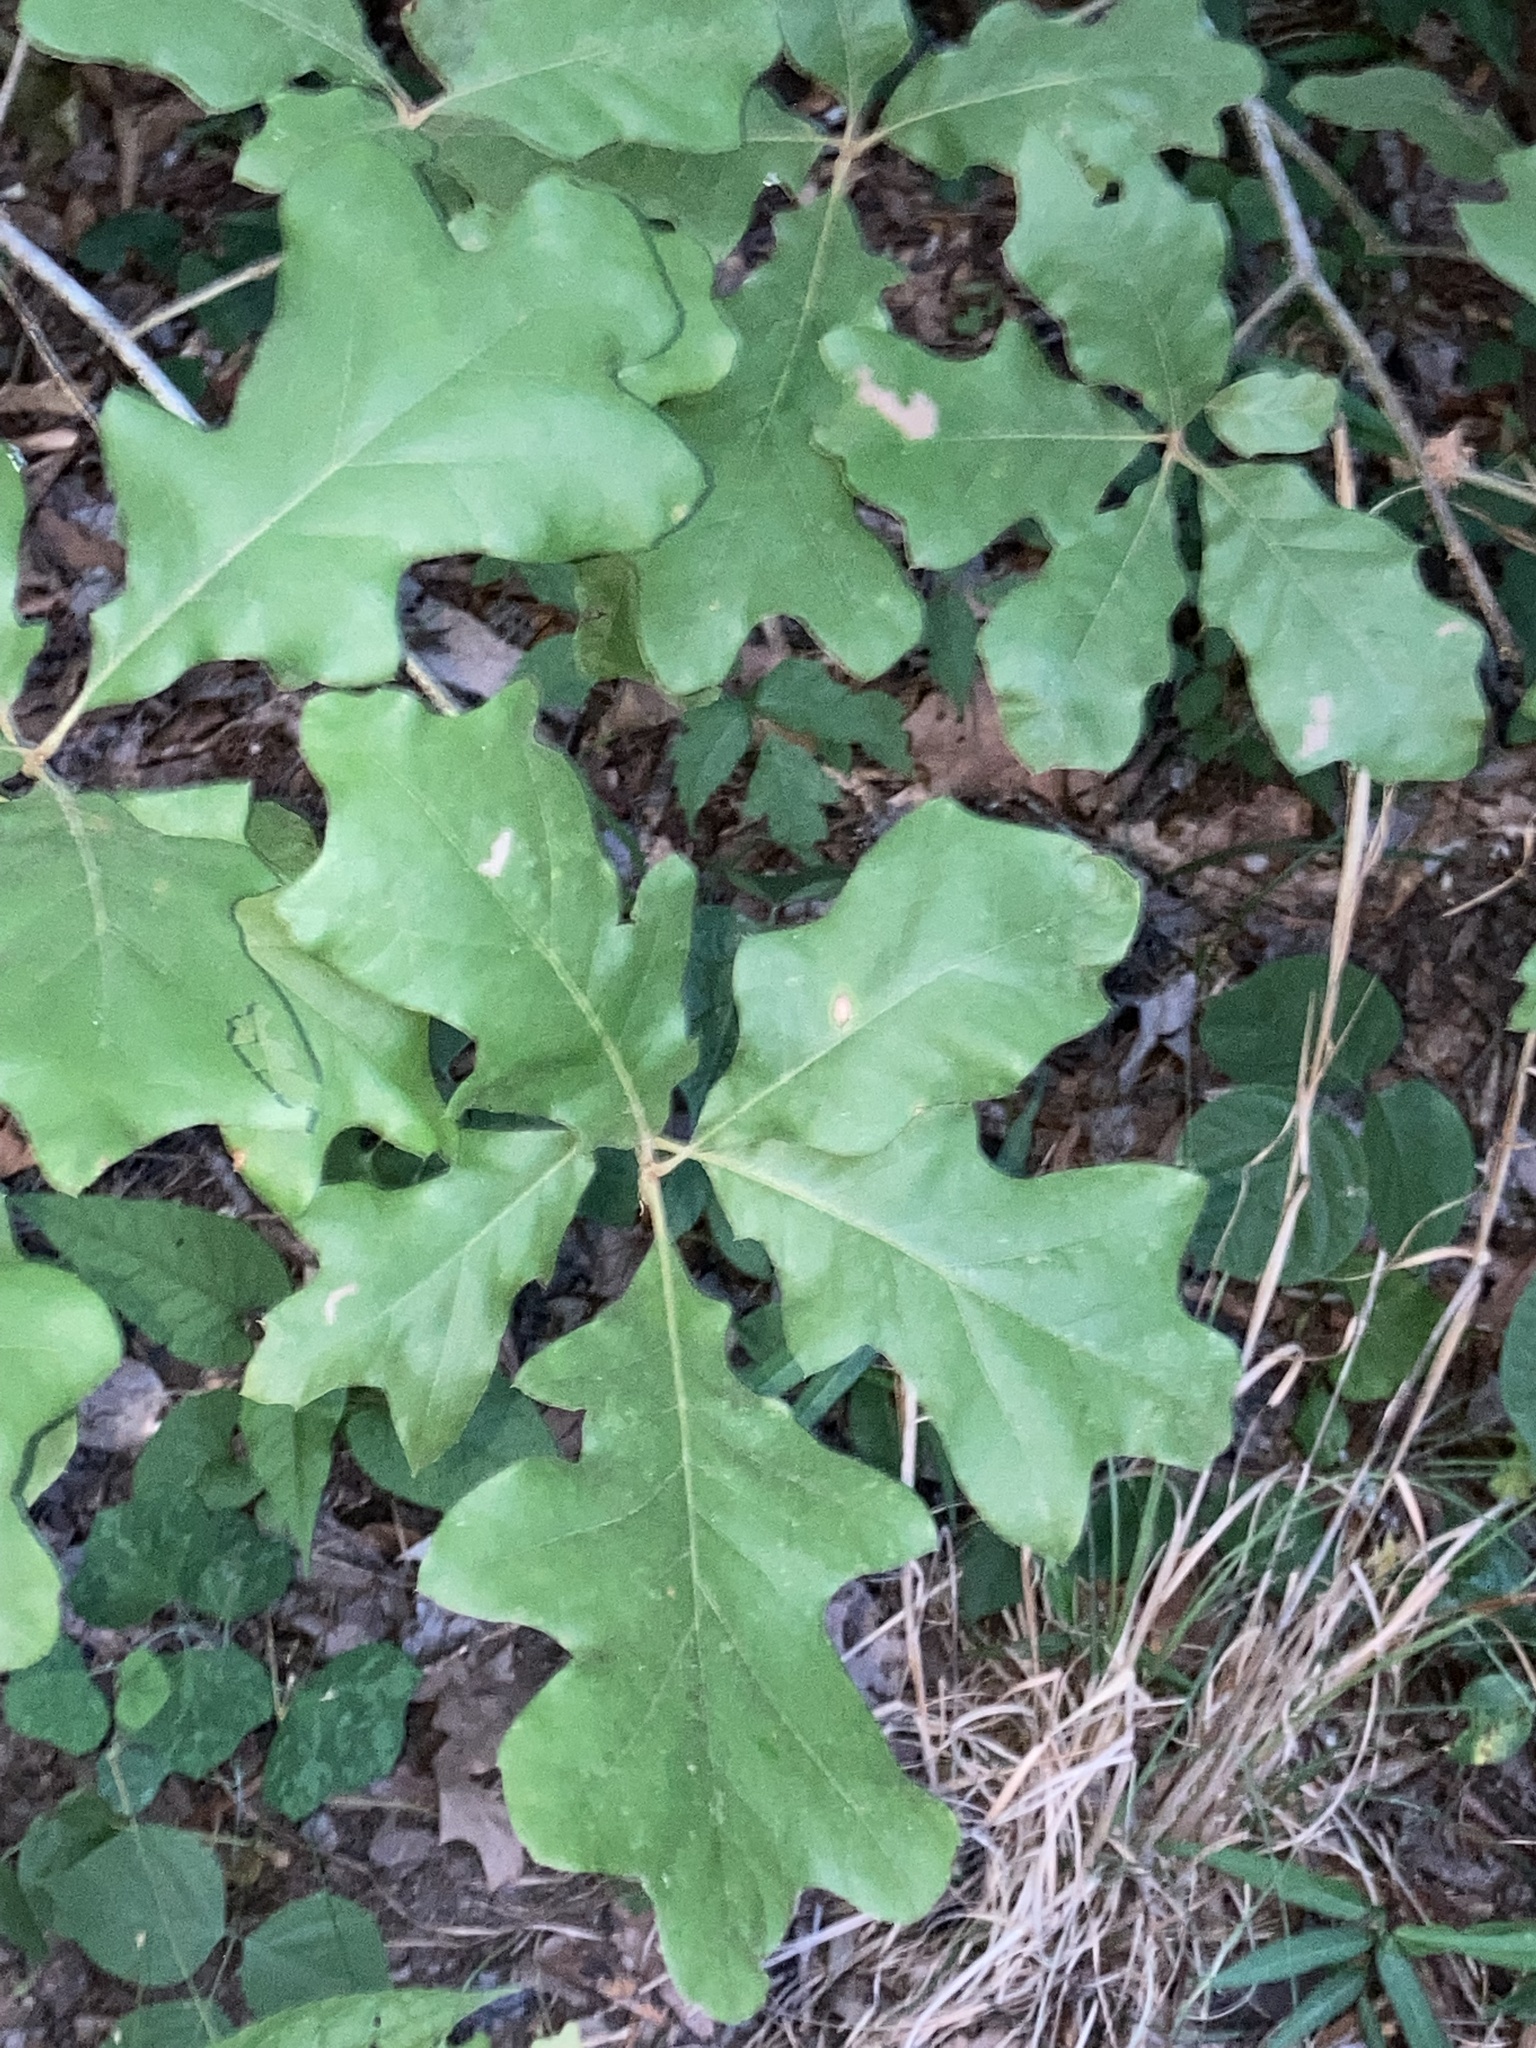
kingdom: Plantae
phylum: Tracheophyta
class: Magnoliopsida
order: Fagales
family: Fagaceae
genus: Quercus
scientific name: Quercus pagoda
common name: Cherrybark oak
